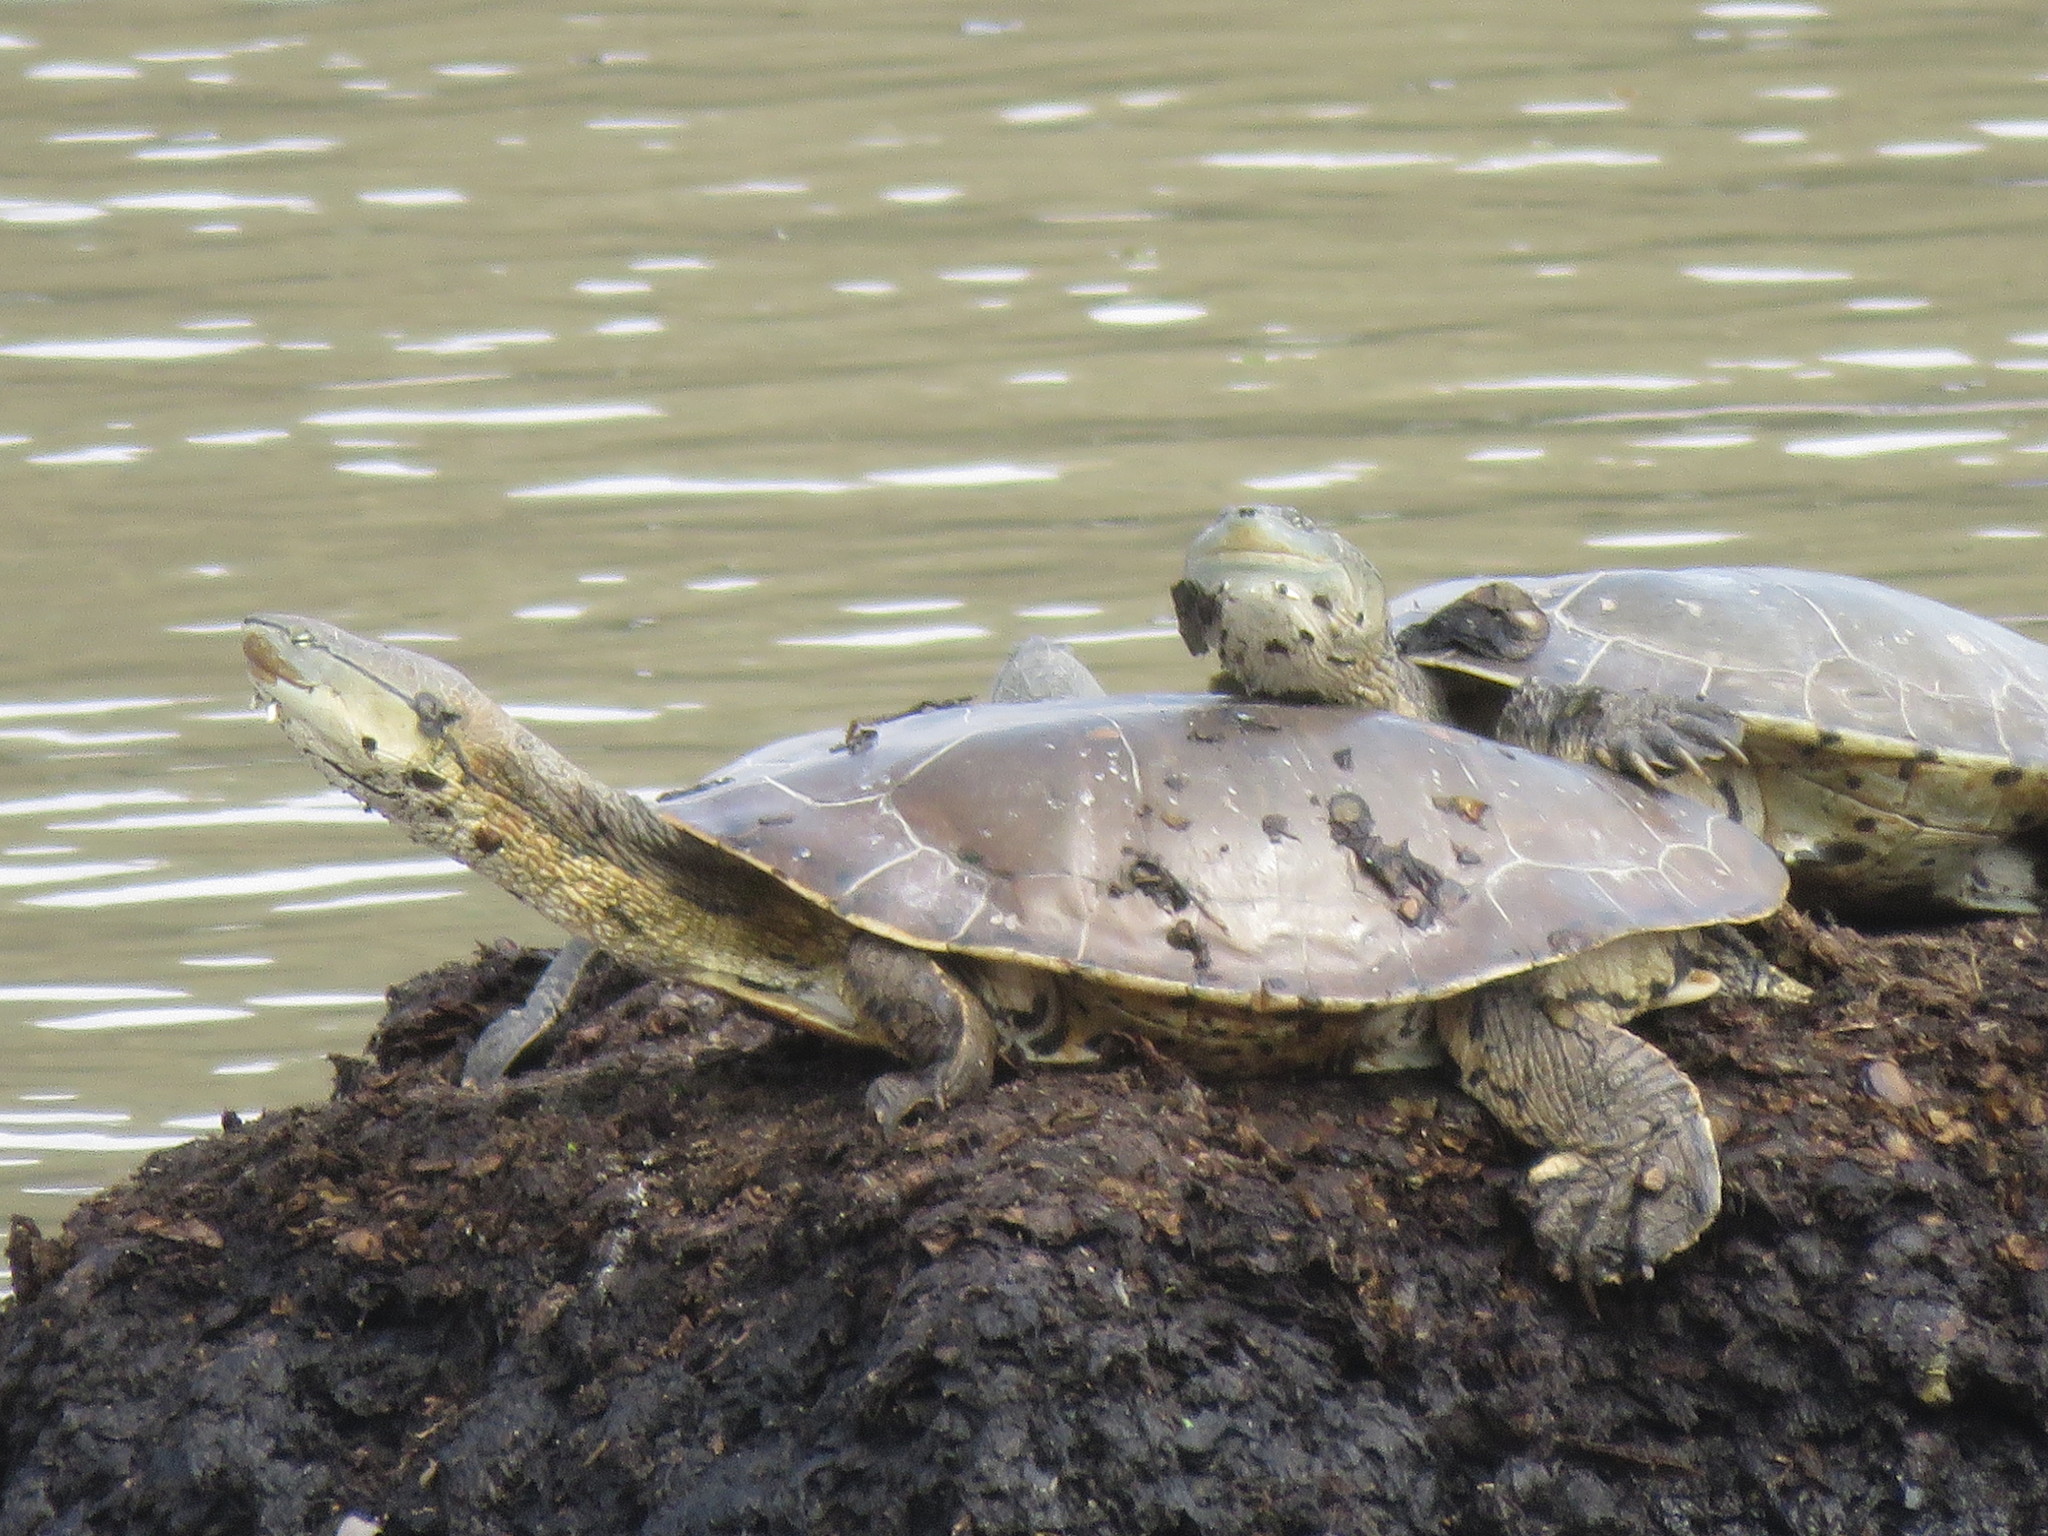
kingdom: Animalia
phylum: Chordata
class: Testudines
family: Chelidae
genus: Phrynops
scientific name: Phrynops hilarii
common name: Side-necked turtle of saint hillaire
